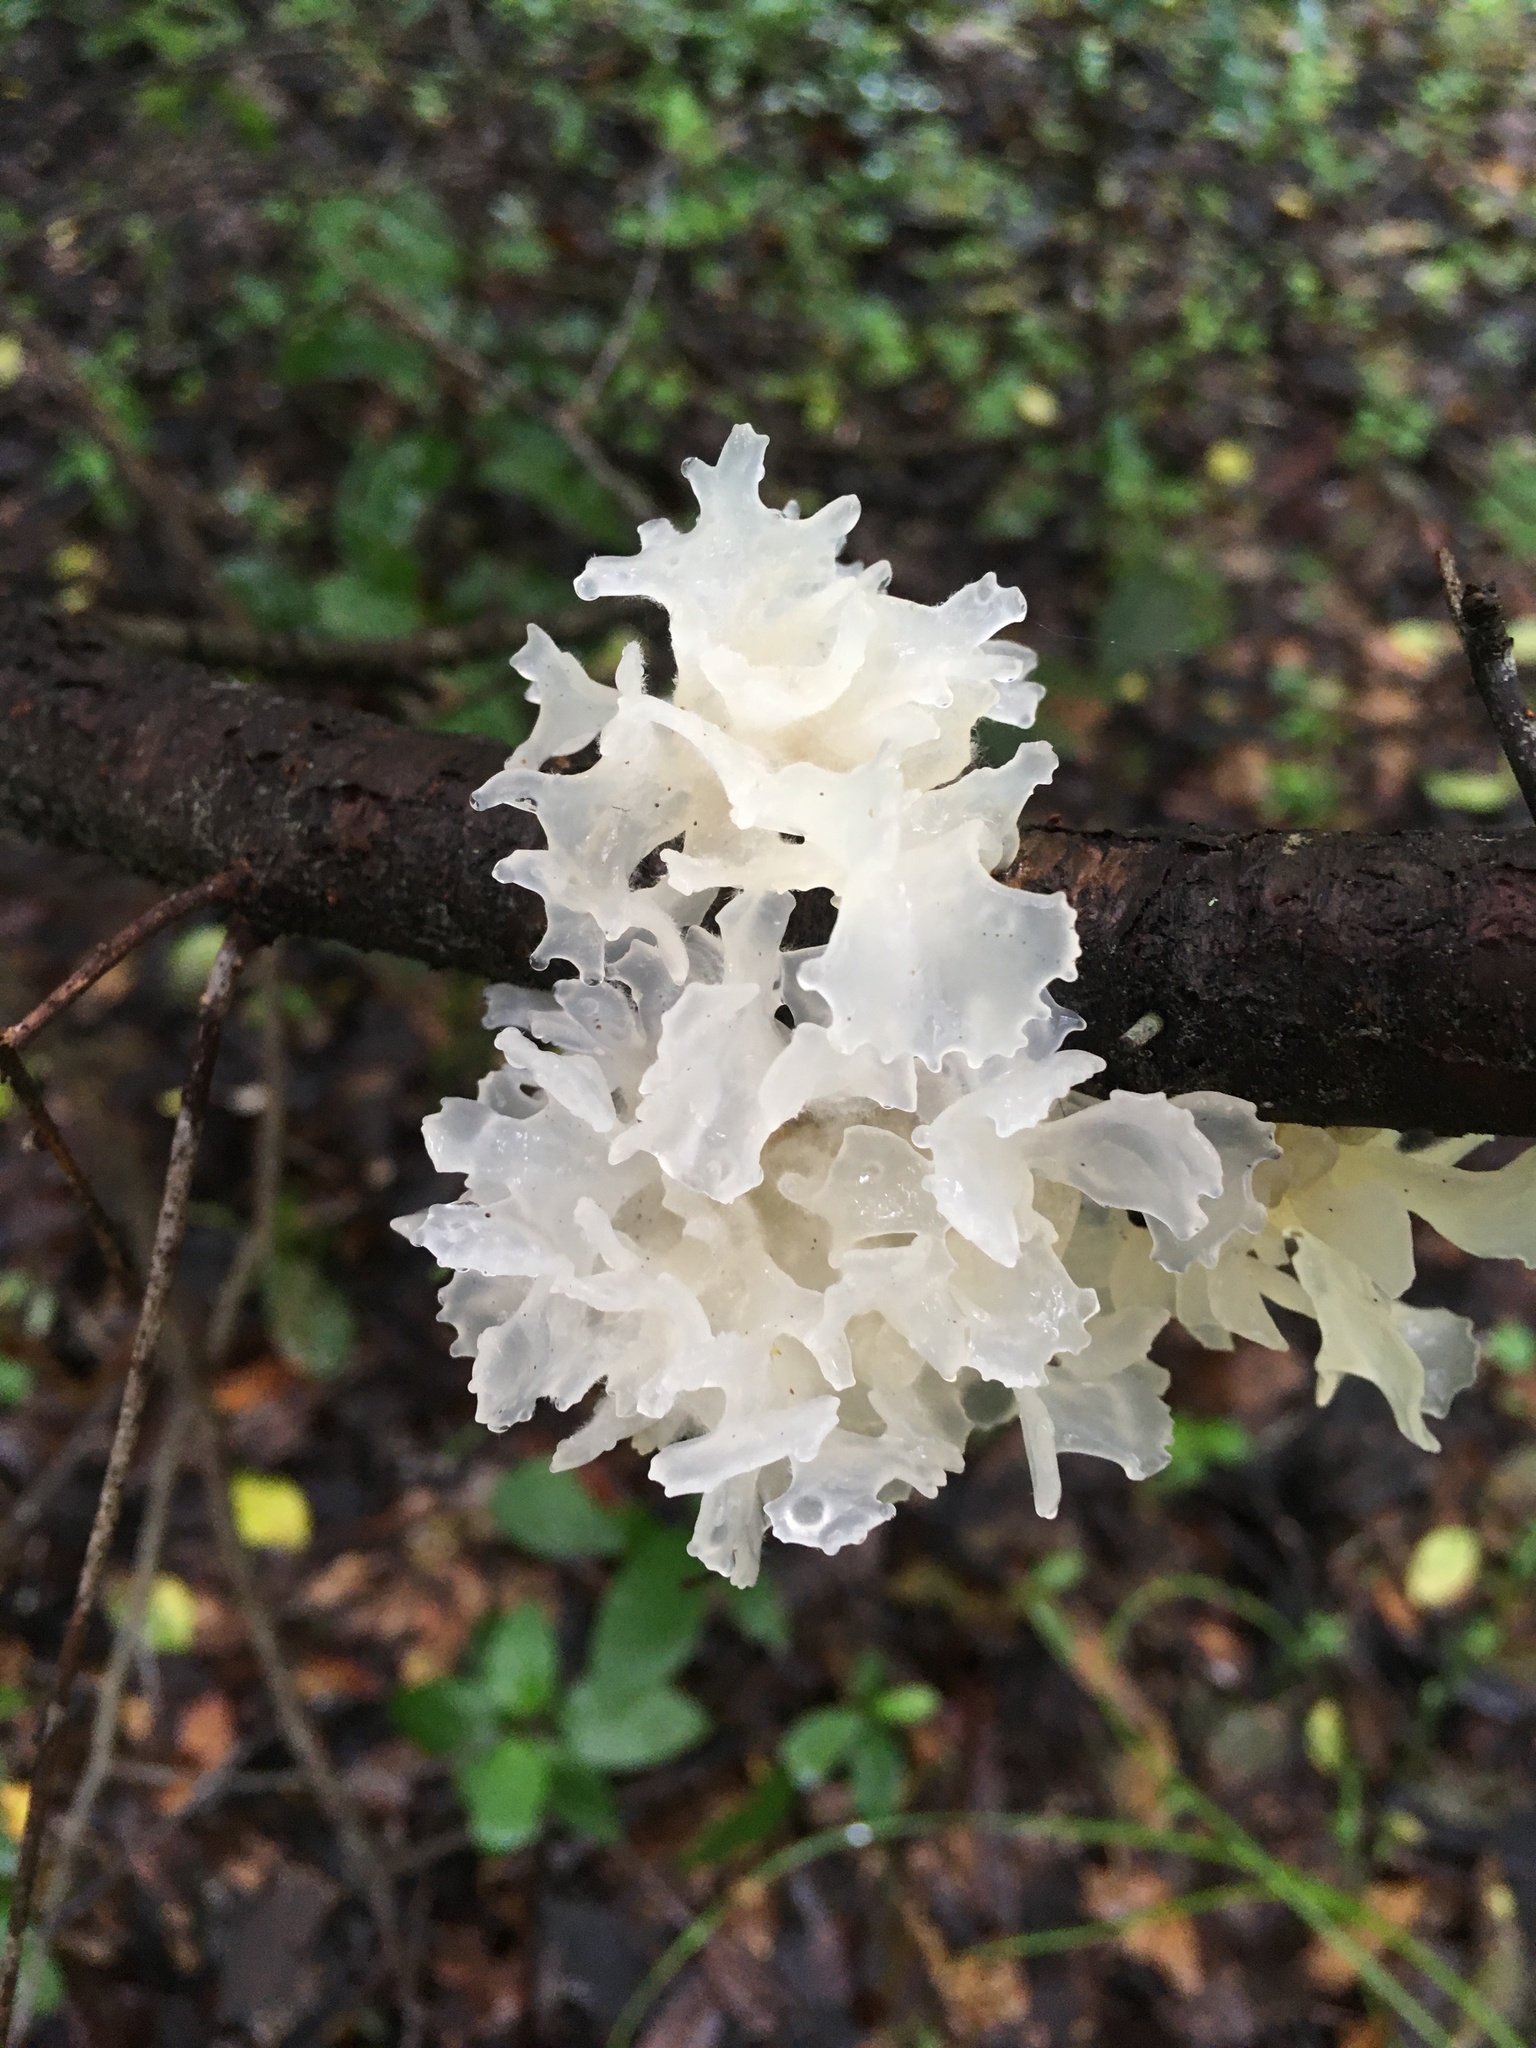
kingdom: Fungi
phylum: Basidiomycota
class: Tremellomycetes
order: Tremellales
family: Tremellaceae
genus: Tremella
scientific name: Tremella fuciformis
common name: Snow fungus
